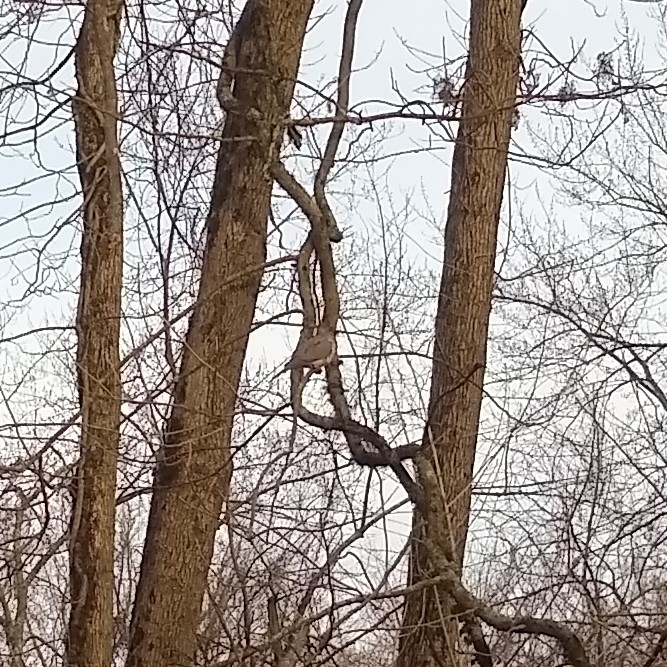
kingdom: Animalia
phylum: Chordata
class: Aves
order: Columbiformes
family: Columbidae
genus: Zenaida
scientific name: Zenaida macroura
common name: Mourning dove
